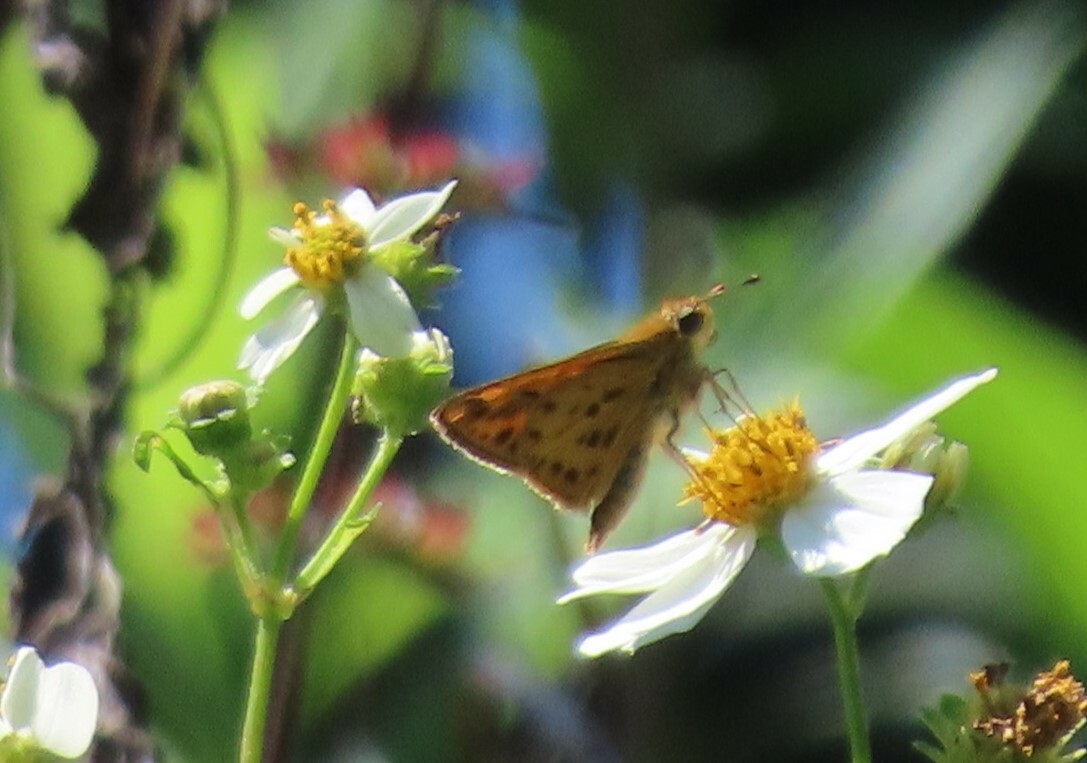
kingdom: Animalia
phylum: Arthropoda
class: Insecta
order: Lepidoptera
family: Hesperiidae
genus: Hylephila
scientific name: Hylephila phyleus
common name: Fiery skipper
